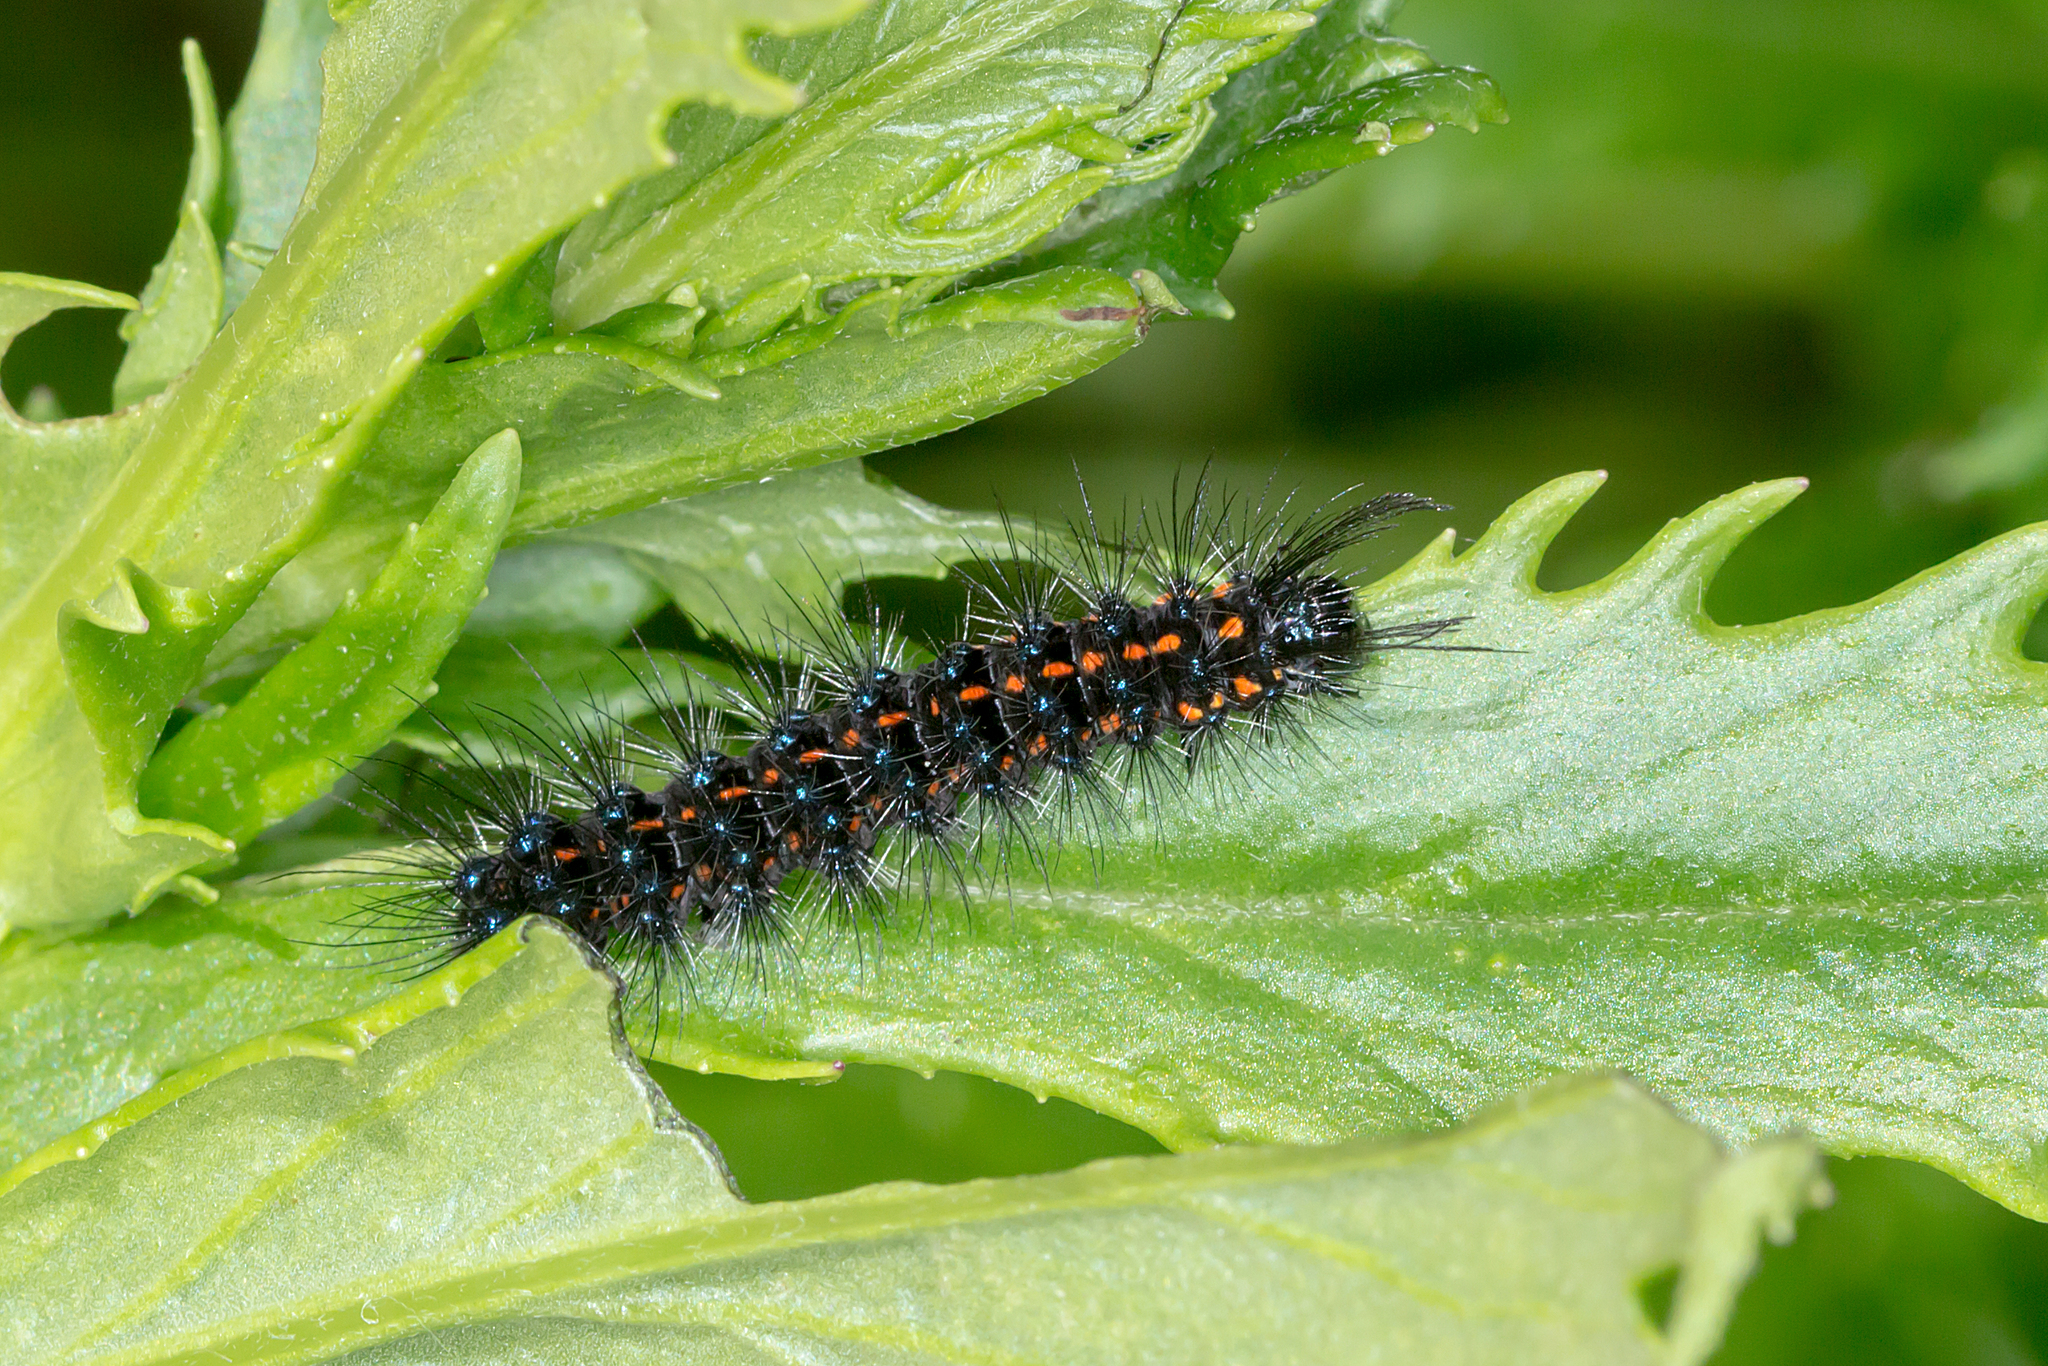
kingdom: Animalia
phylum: Arthropoda
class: Insecta
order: Lepidoptera
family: Erebidae
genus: Nyctemera
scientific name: Nyctemera amicus
